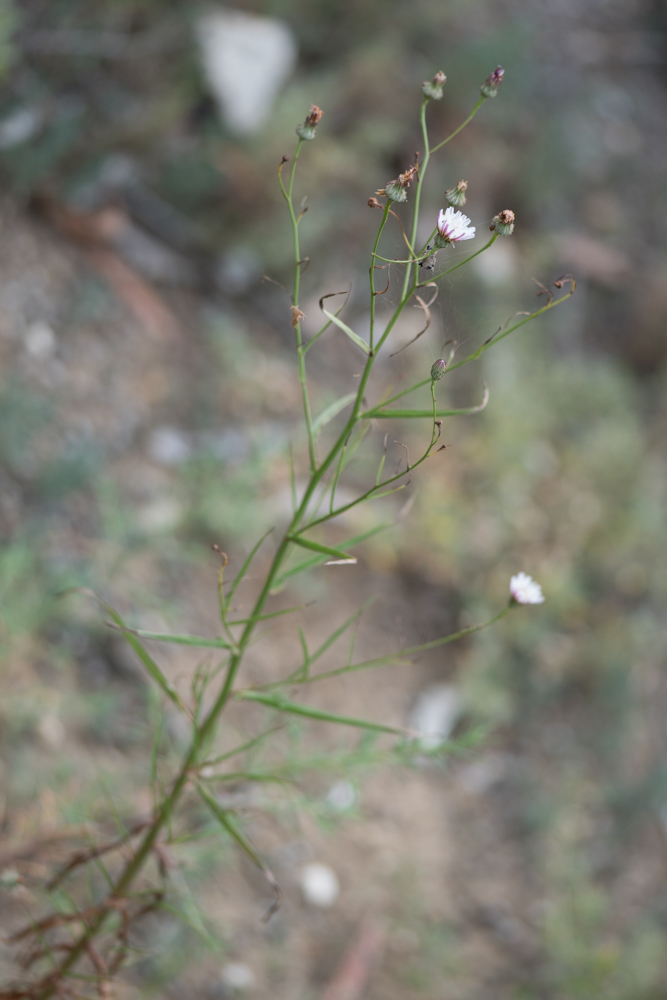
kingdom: Plantae
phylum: Tracheophyta
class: Magnoliopsida
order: Asterales
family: Asteraceae
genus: Malacothrix
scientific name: Malacothrix saxatilis
